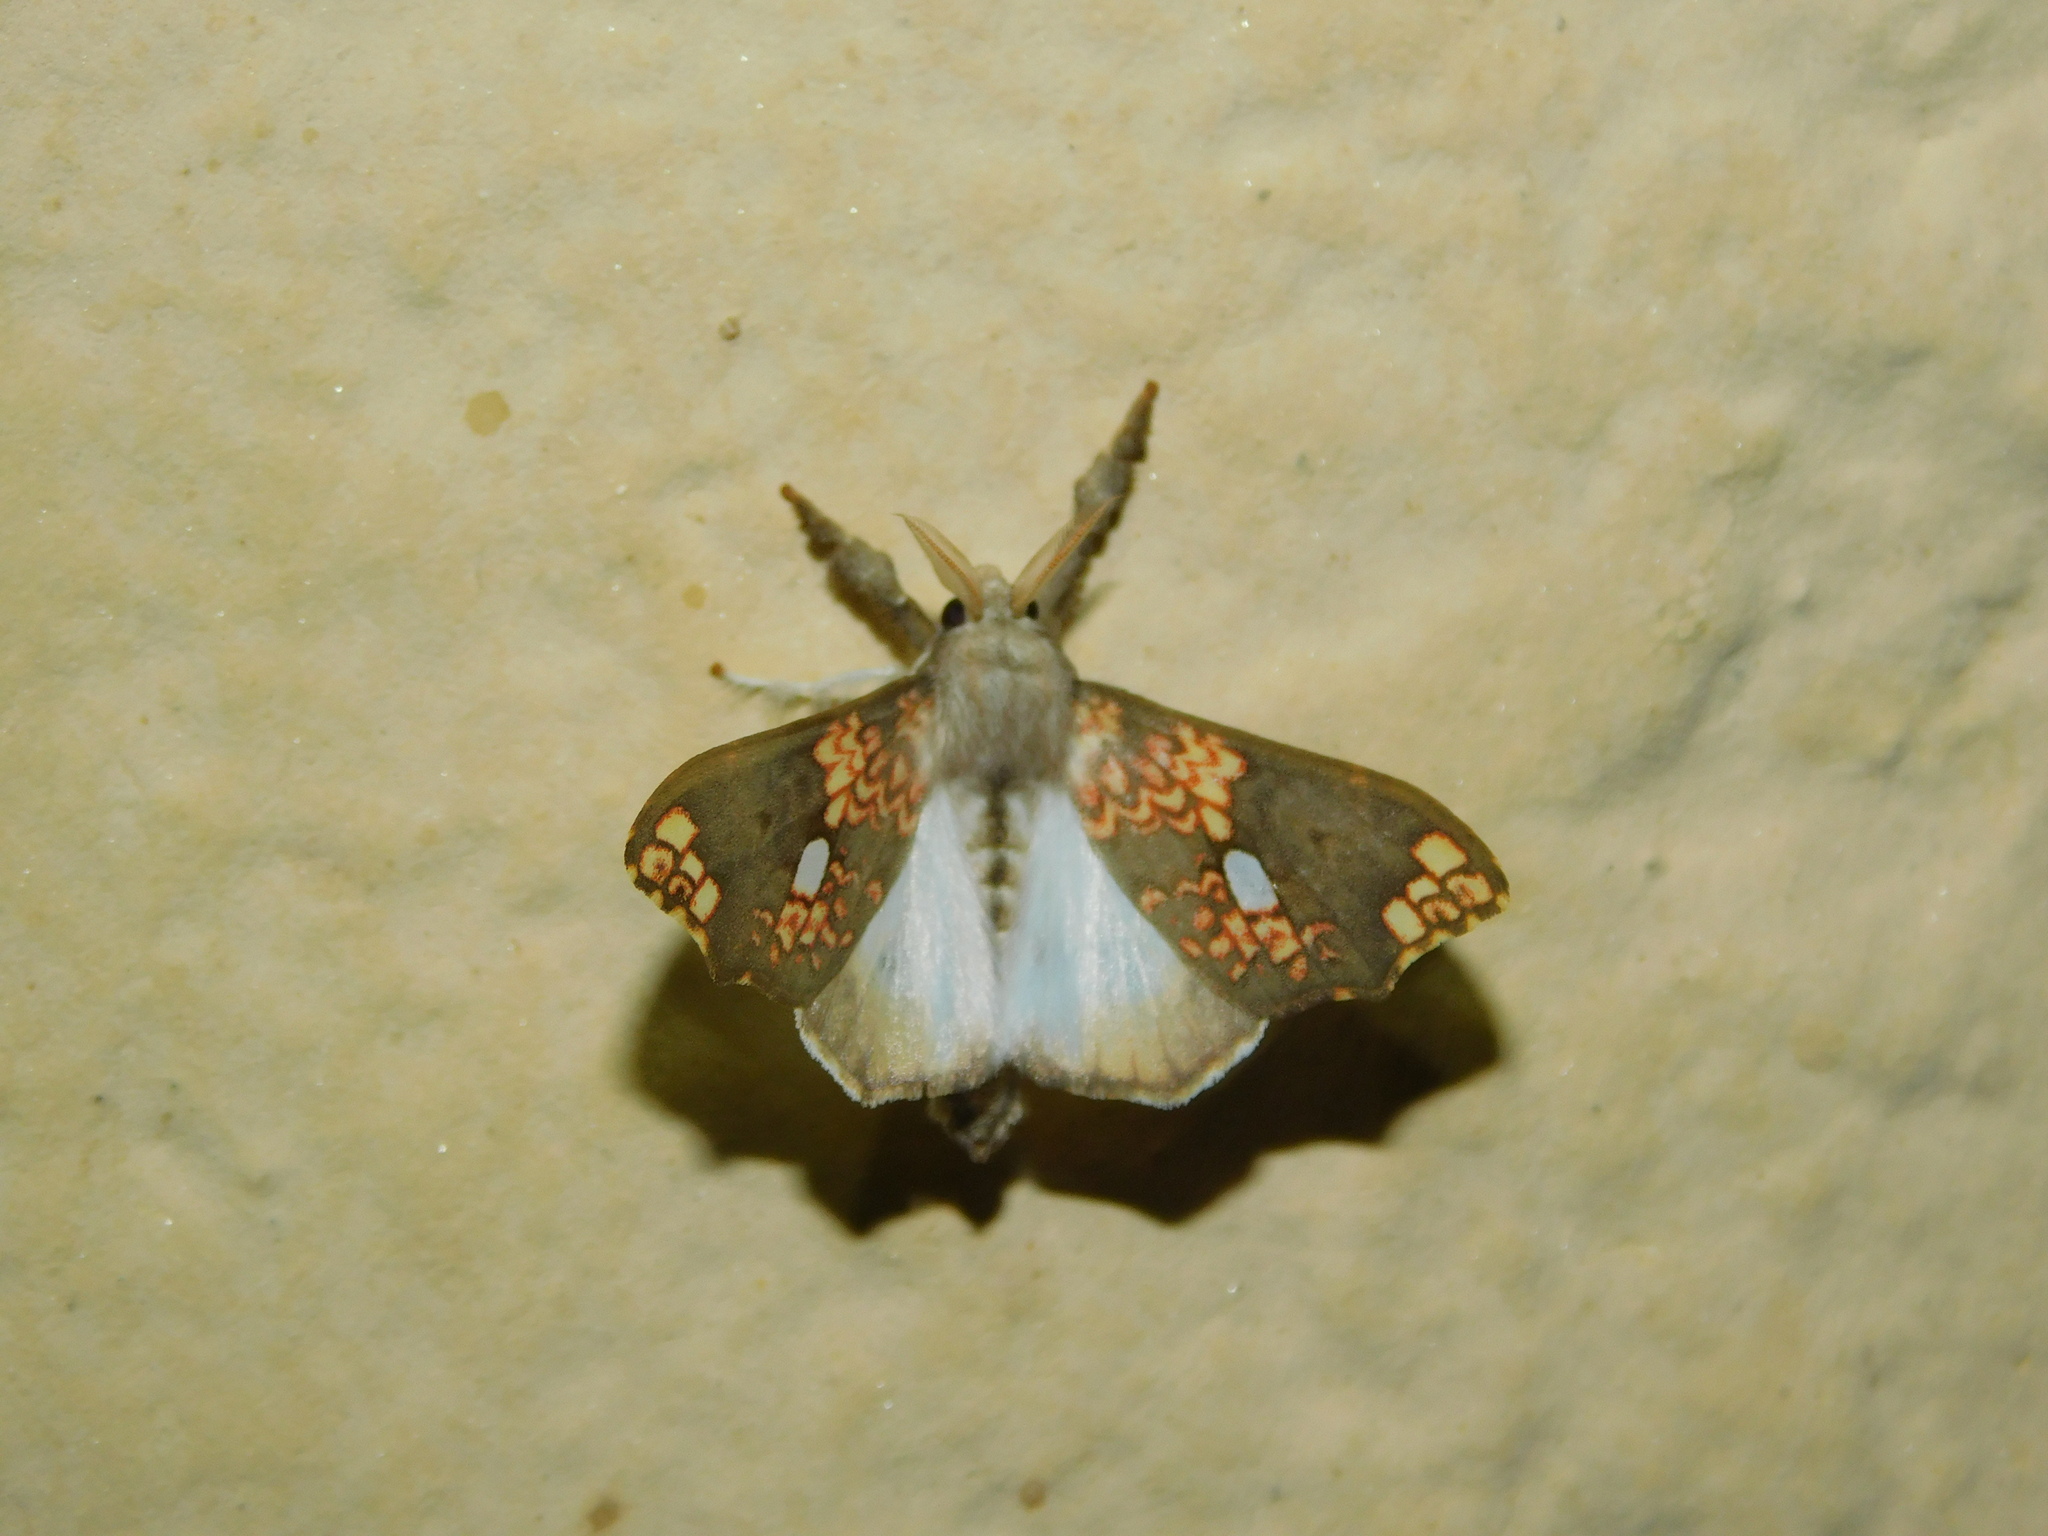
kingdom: Animalia
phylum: Arthropoda
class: Insecta
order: Lepidoptera
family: Erebidae
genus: Lomadonta
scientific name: Lomadonta erythrina
